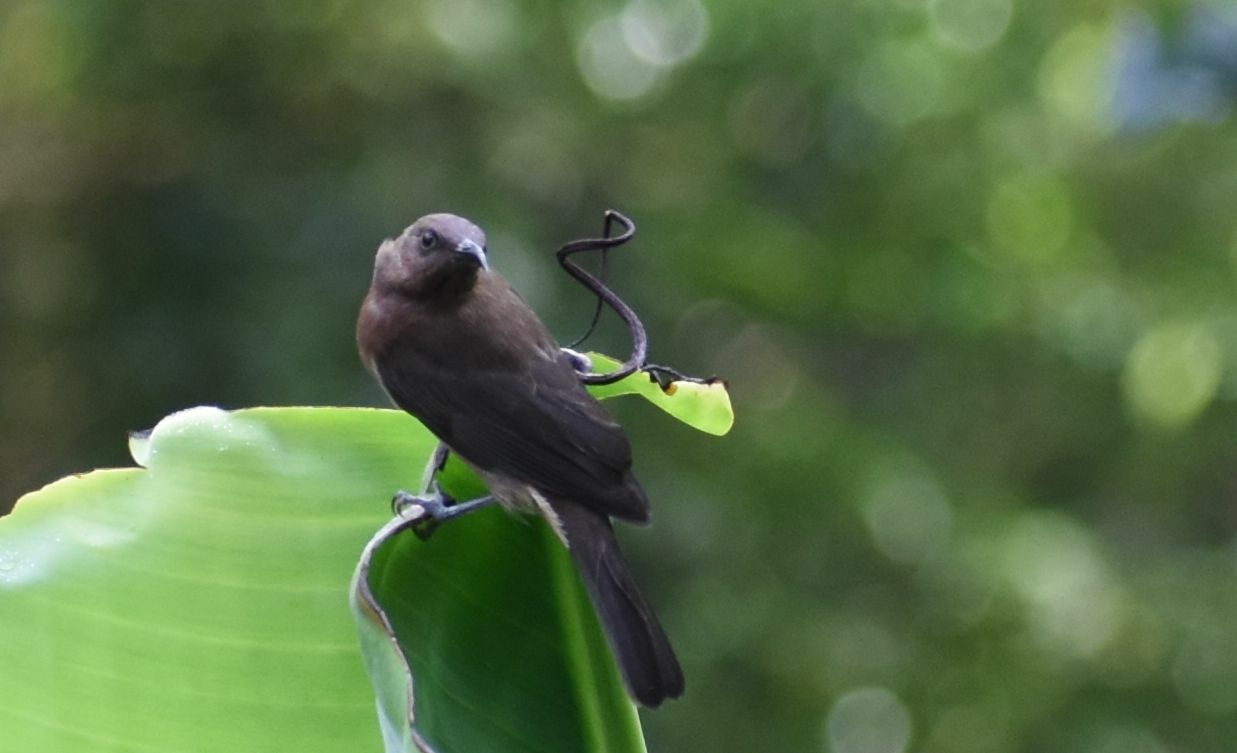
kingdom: Animalia
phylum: Chordata
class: Aves
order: Passeriformes
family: Meliphagidae
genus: Myzomela
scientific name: Myzomela obscura
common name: Dusky myzomela
